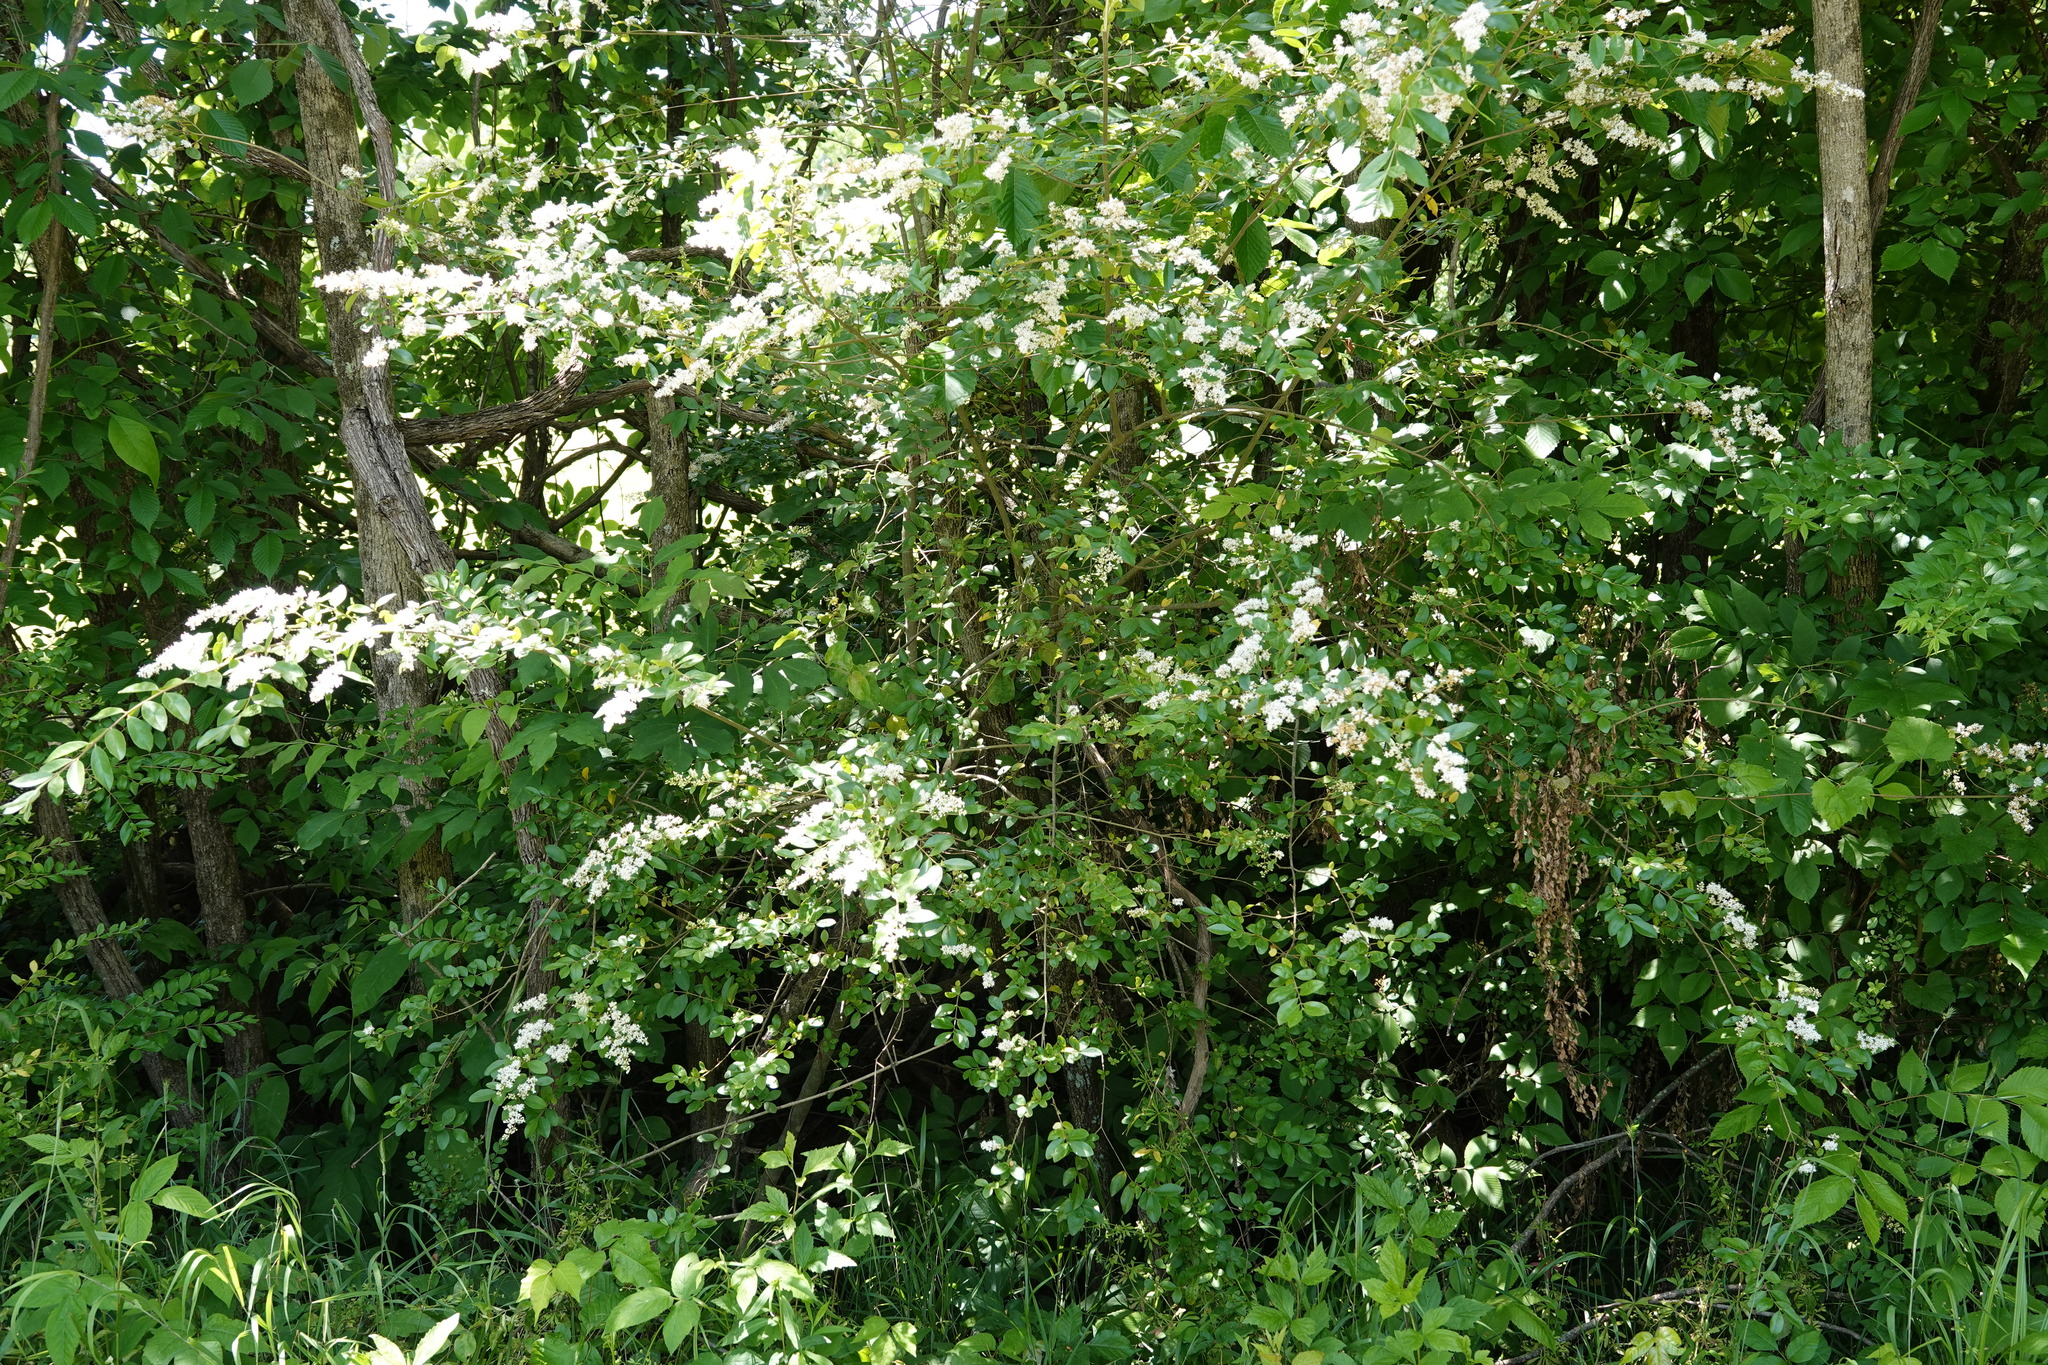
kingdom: Plantae
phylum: Tracheophyta
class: Magnoliopsida
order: Lamiales
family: Oleaceae
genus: Ligustrum
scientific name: Ligustrum sinense
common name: Chinese privet
